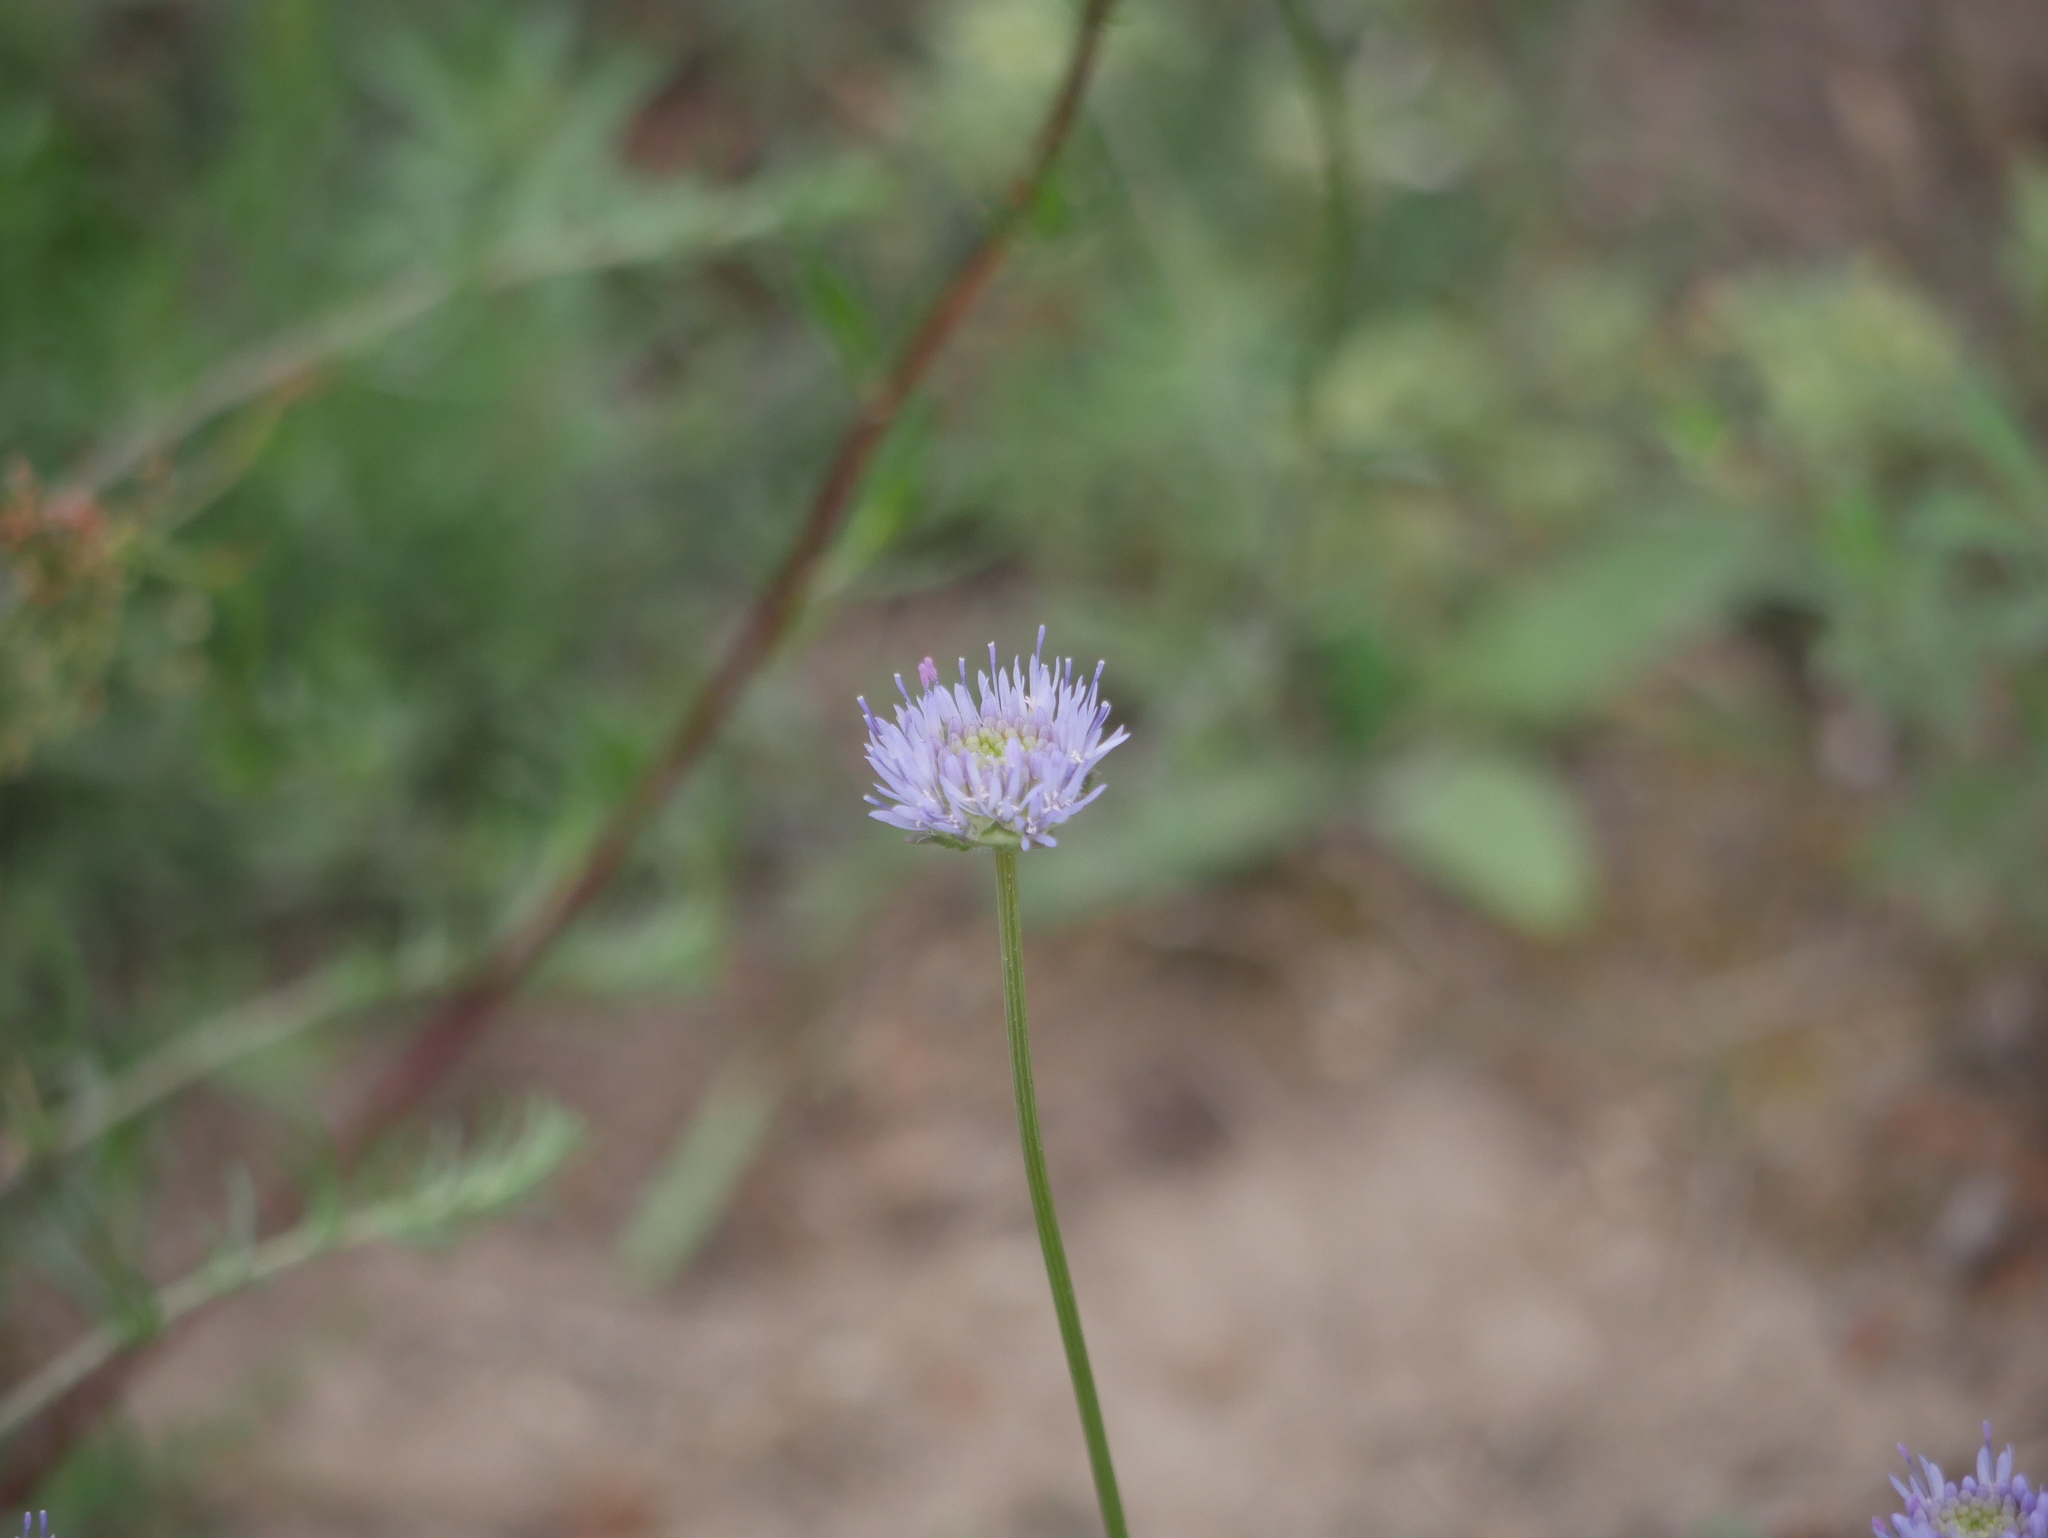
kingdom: Plantae
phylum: Tracheophyta
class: Magnoliopsida
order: Asterales
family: Campanulaceae
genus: Jasione
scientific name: Jasione montana
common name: Sheep's-bit
